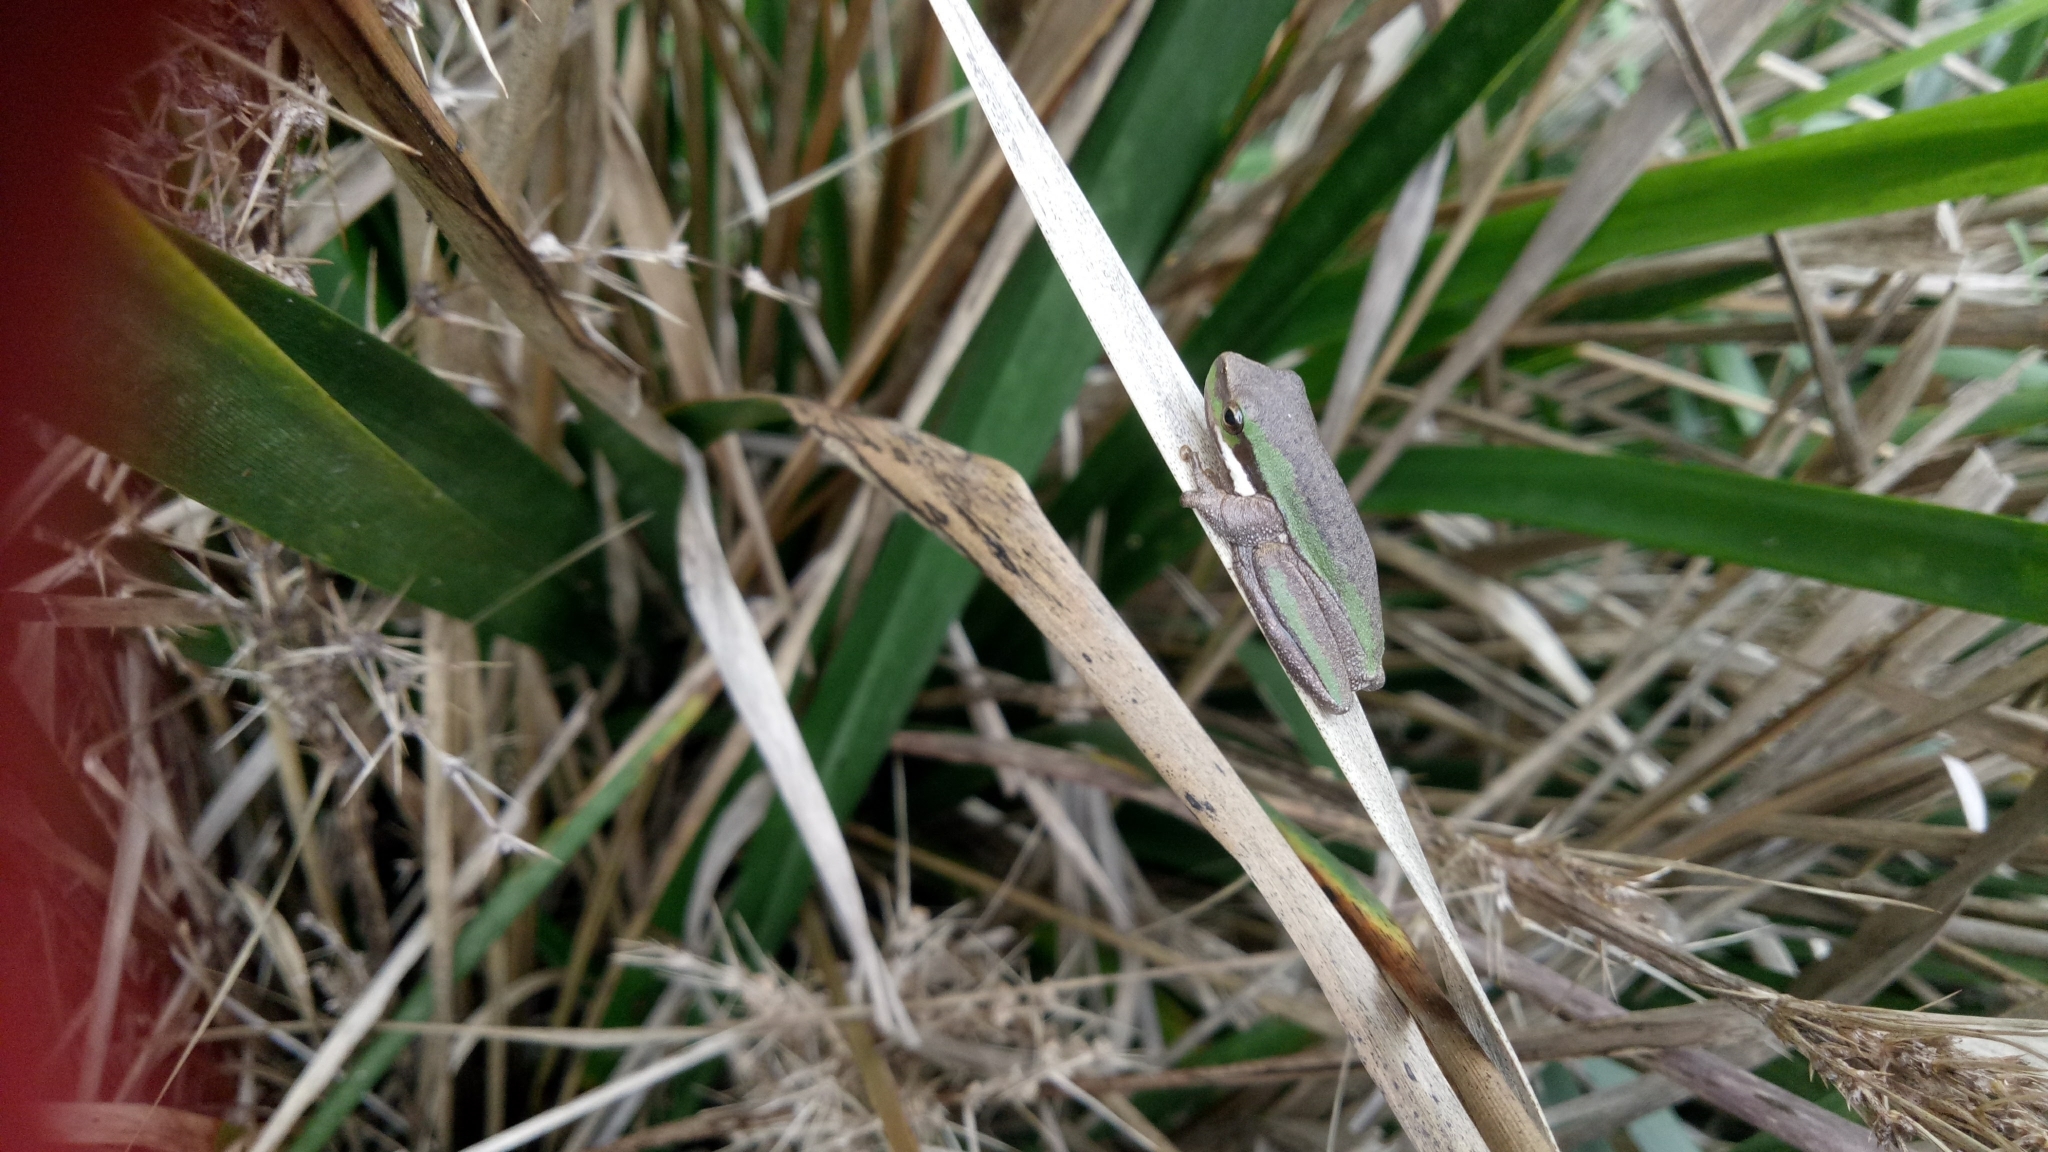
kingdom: Animalia
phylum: Chordata
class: Amphibia
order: Anura
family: Pelodryadidae
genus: Litoria
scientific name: Litoria fallax
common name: Eastern dwarf treefrog
